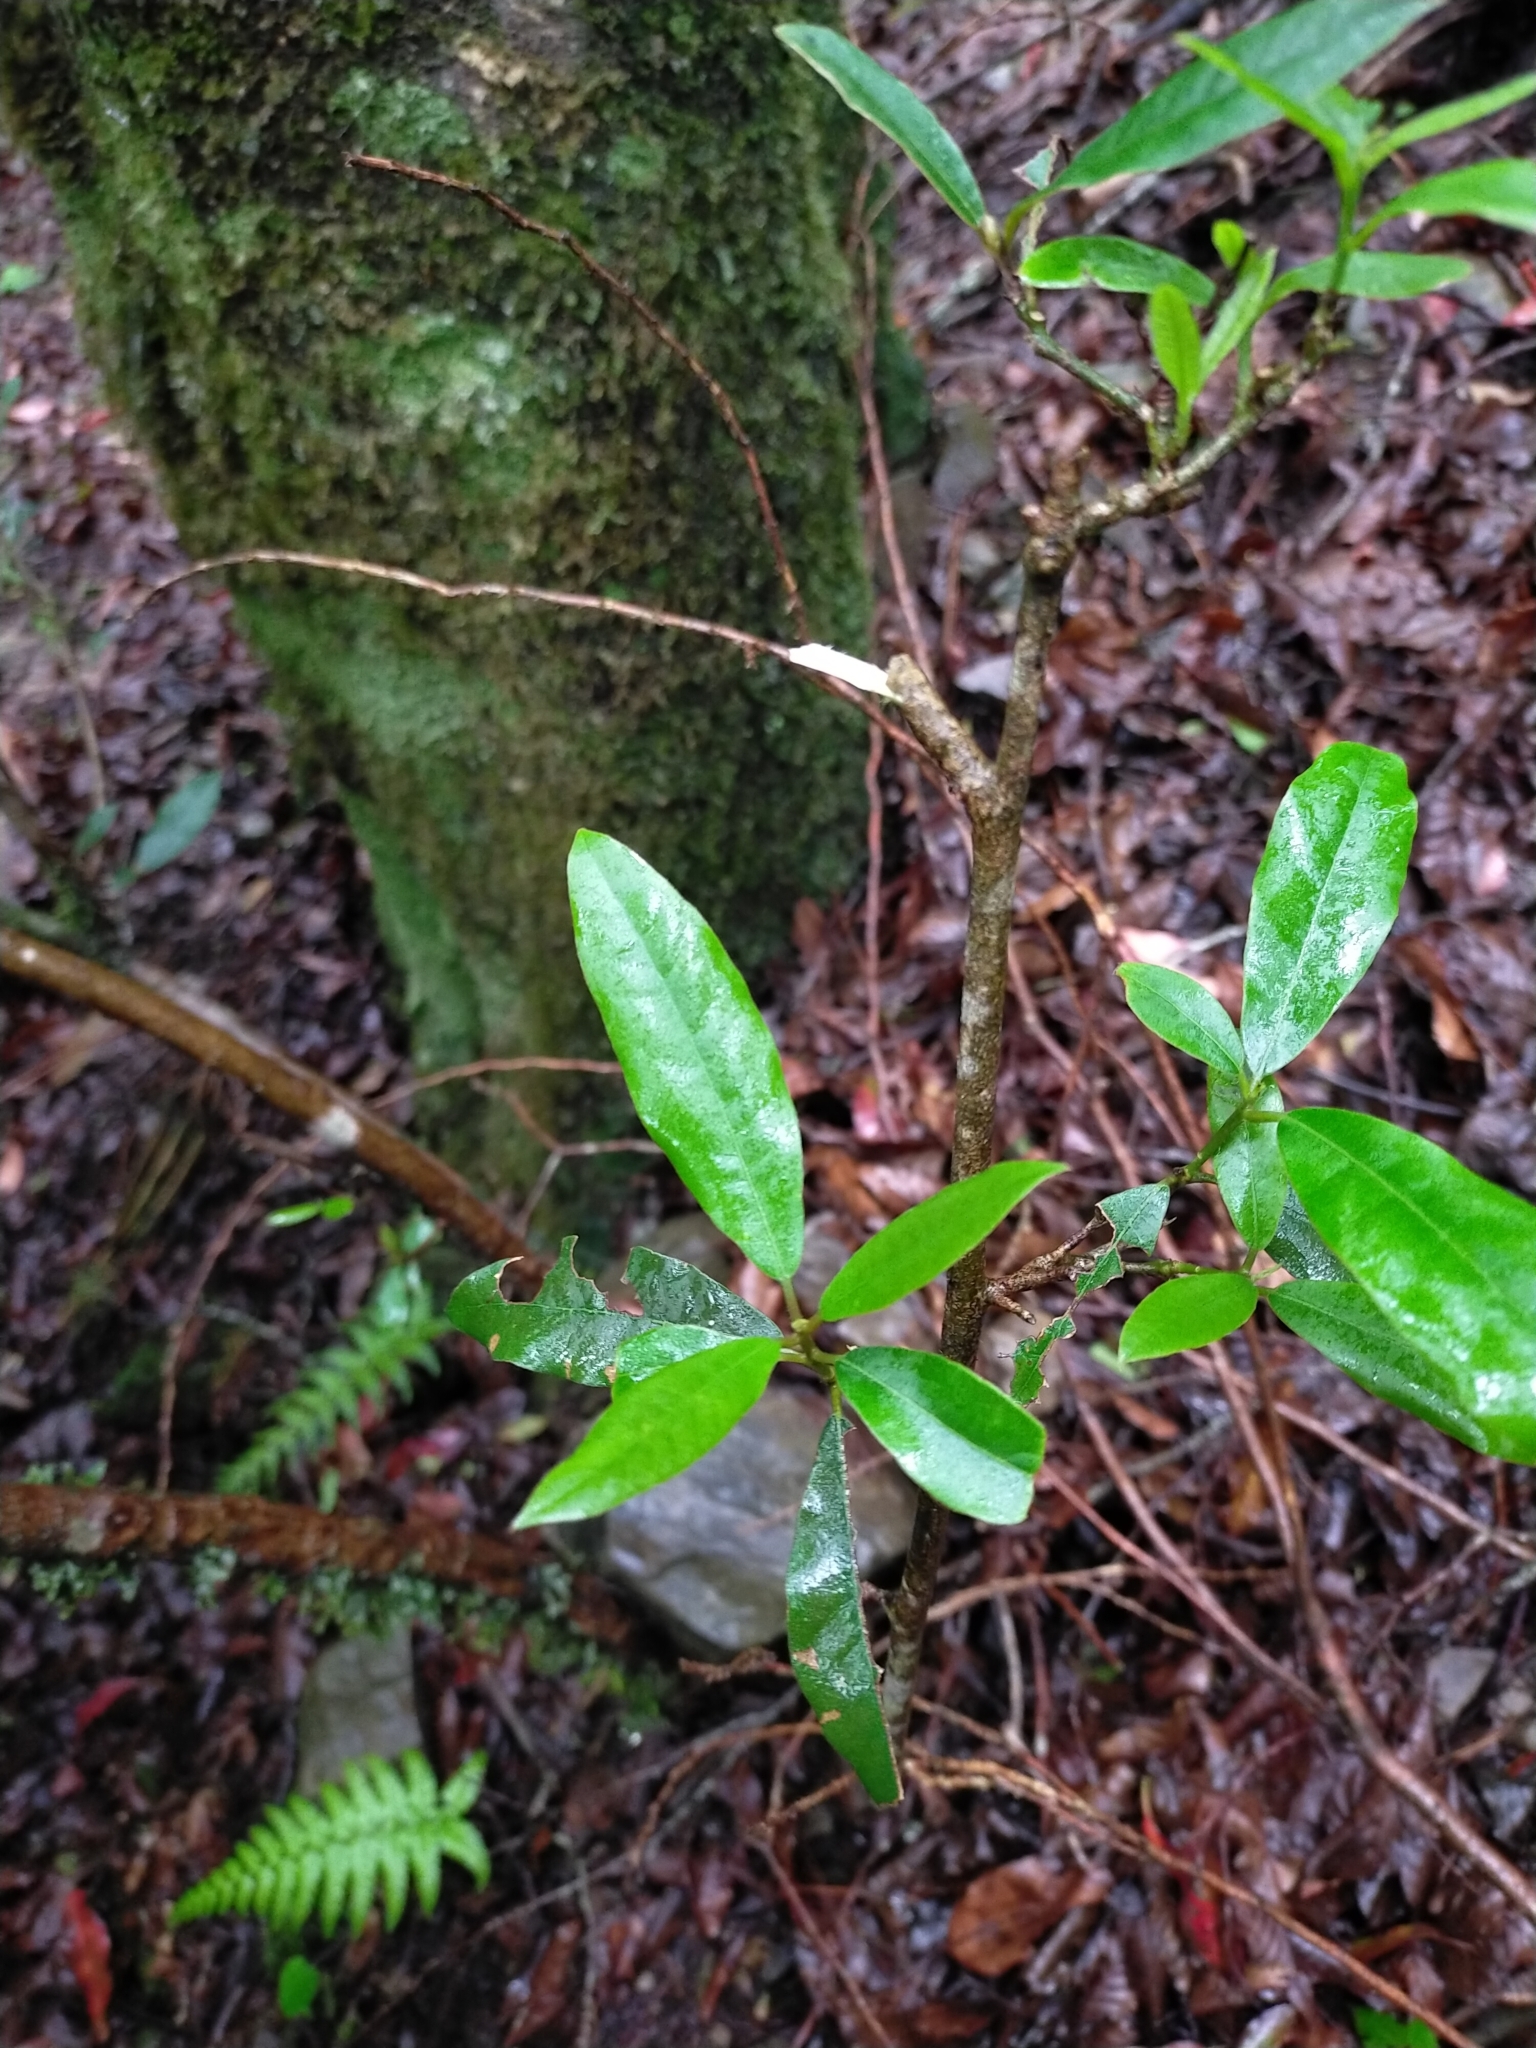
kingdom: Plantae
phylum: Tracheophyta
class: Magnoliopsida
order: Laurales
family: Lauraceae
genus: Litsea
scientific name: Litsea morrisonensis
